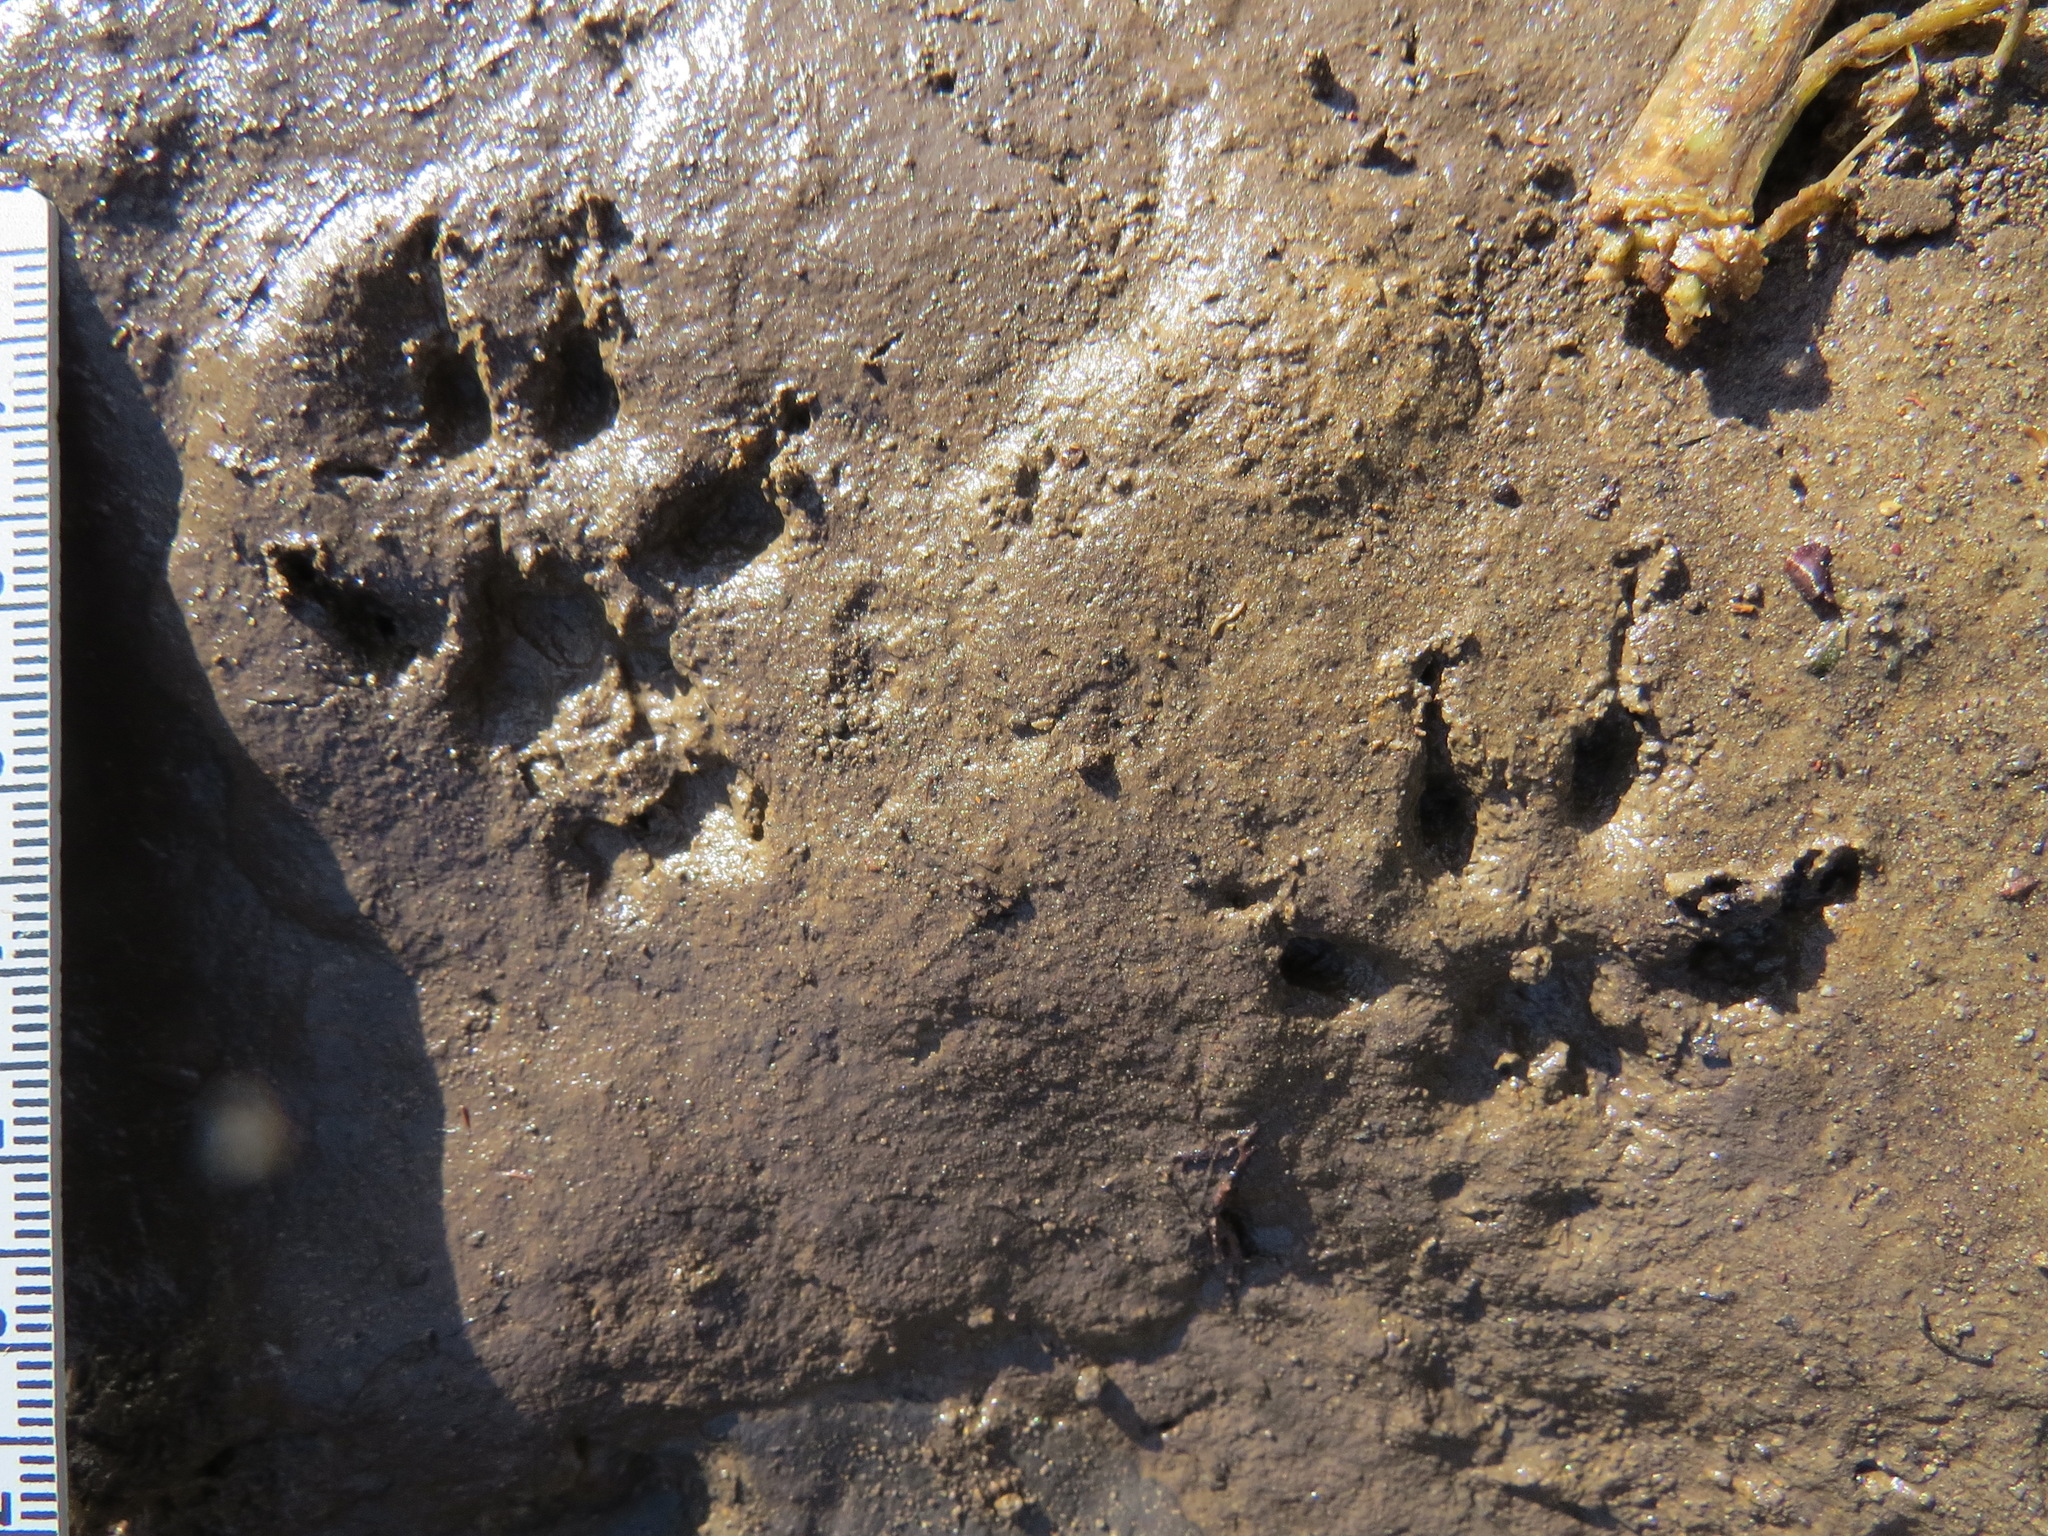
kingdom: Animalia
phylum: Chordata
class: Mammalia
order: Rodentia
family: Sciuridae
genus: Sciurus
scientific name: Sciurus carolinensis
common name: Eastern gray squirrel
